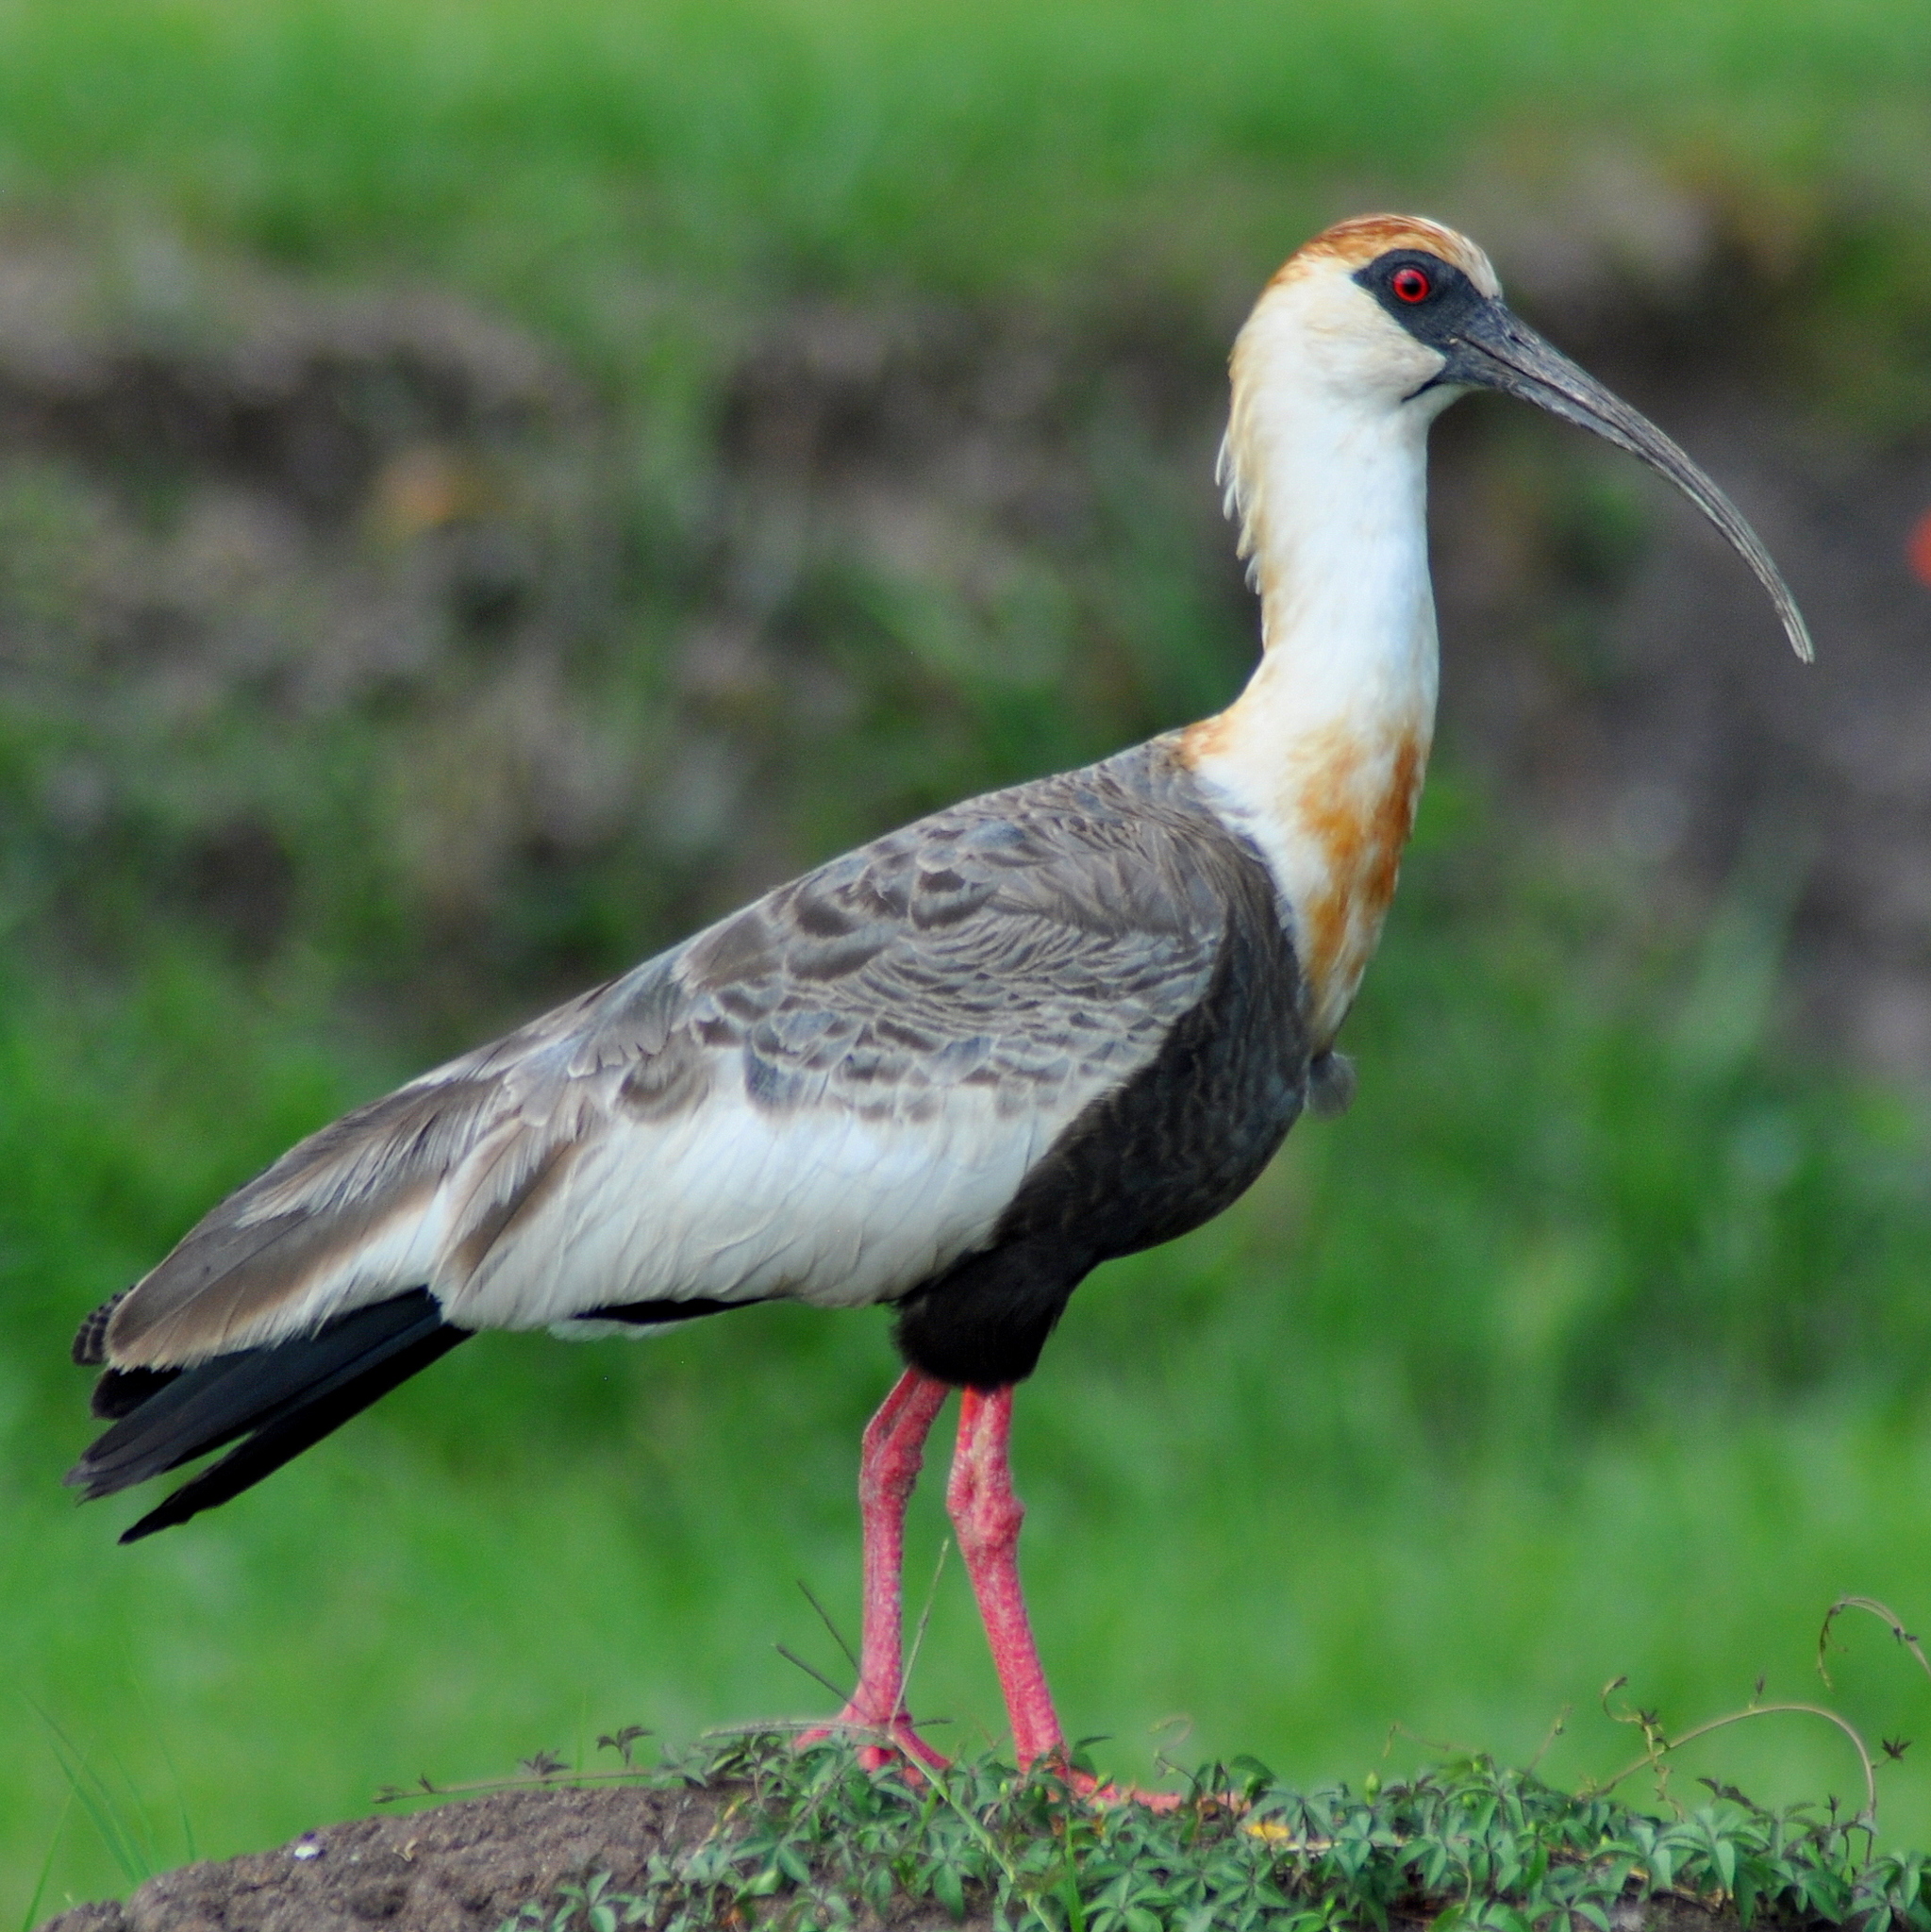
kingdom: Animalia
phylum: Chordata
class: Aves
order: Pelecaniformes
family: Threskiornithidae
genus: Theristicus
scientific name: Theristicus caudatus
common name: Buff-necked ibis
